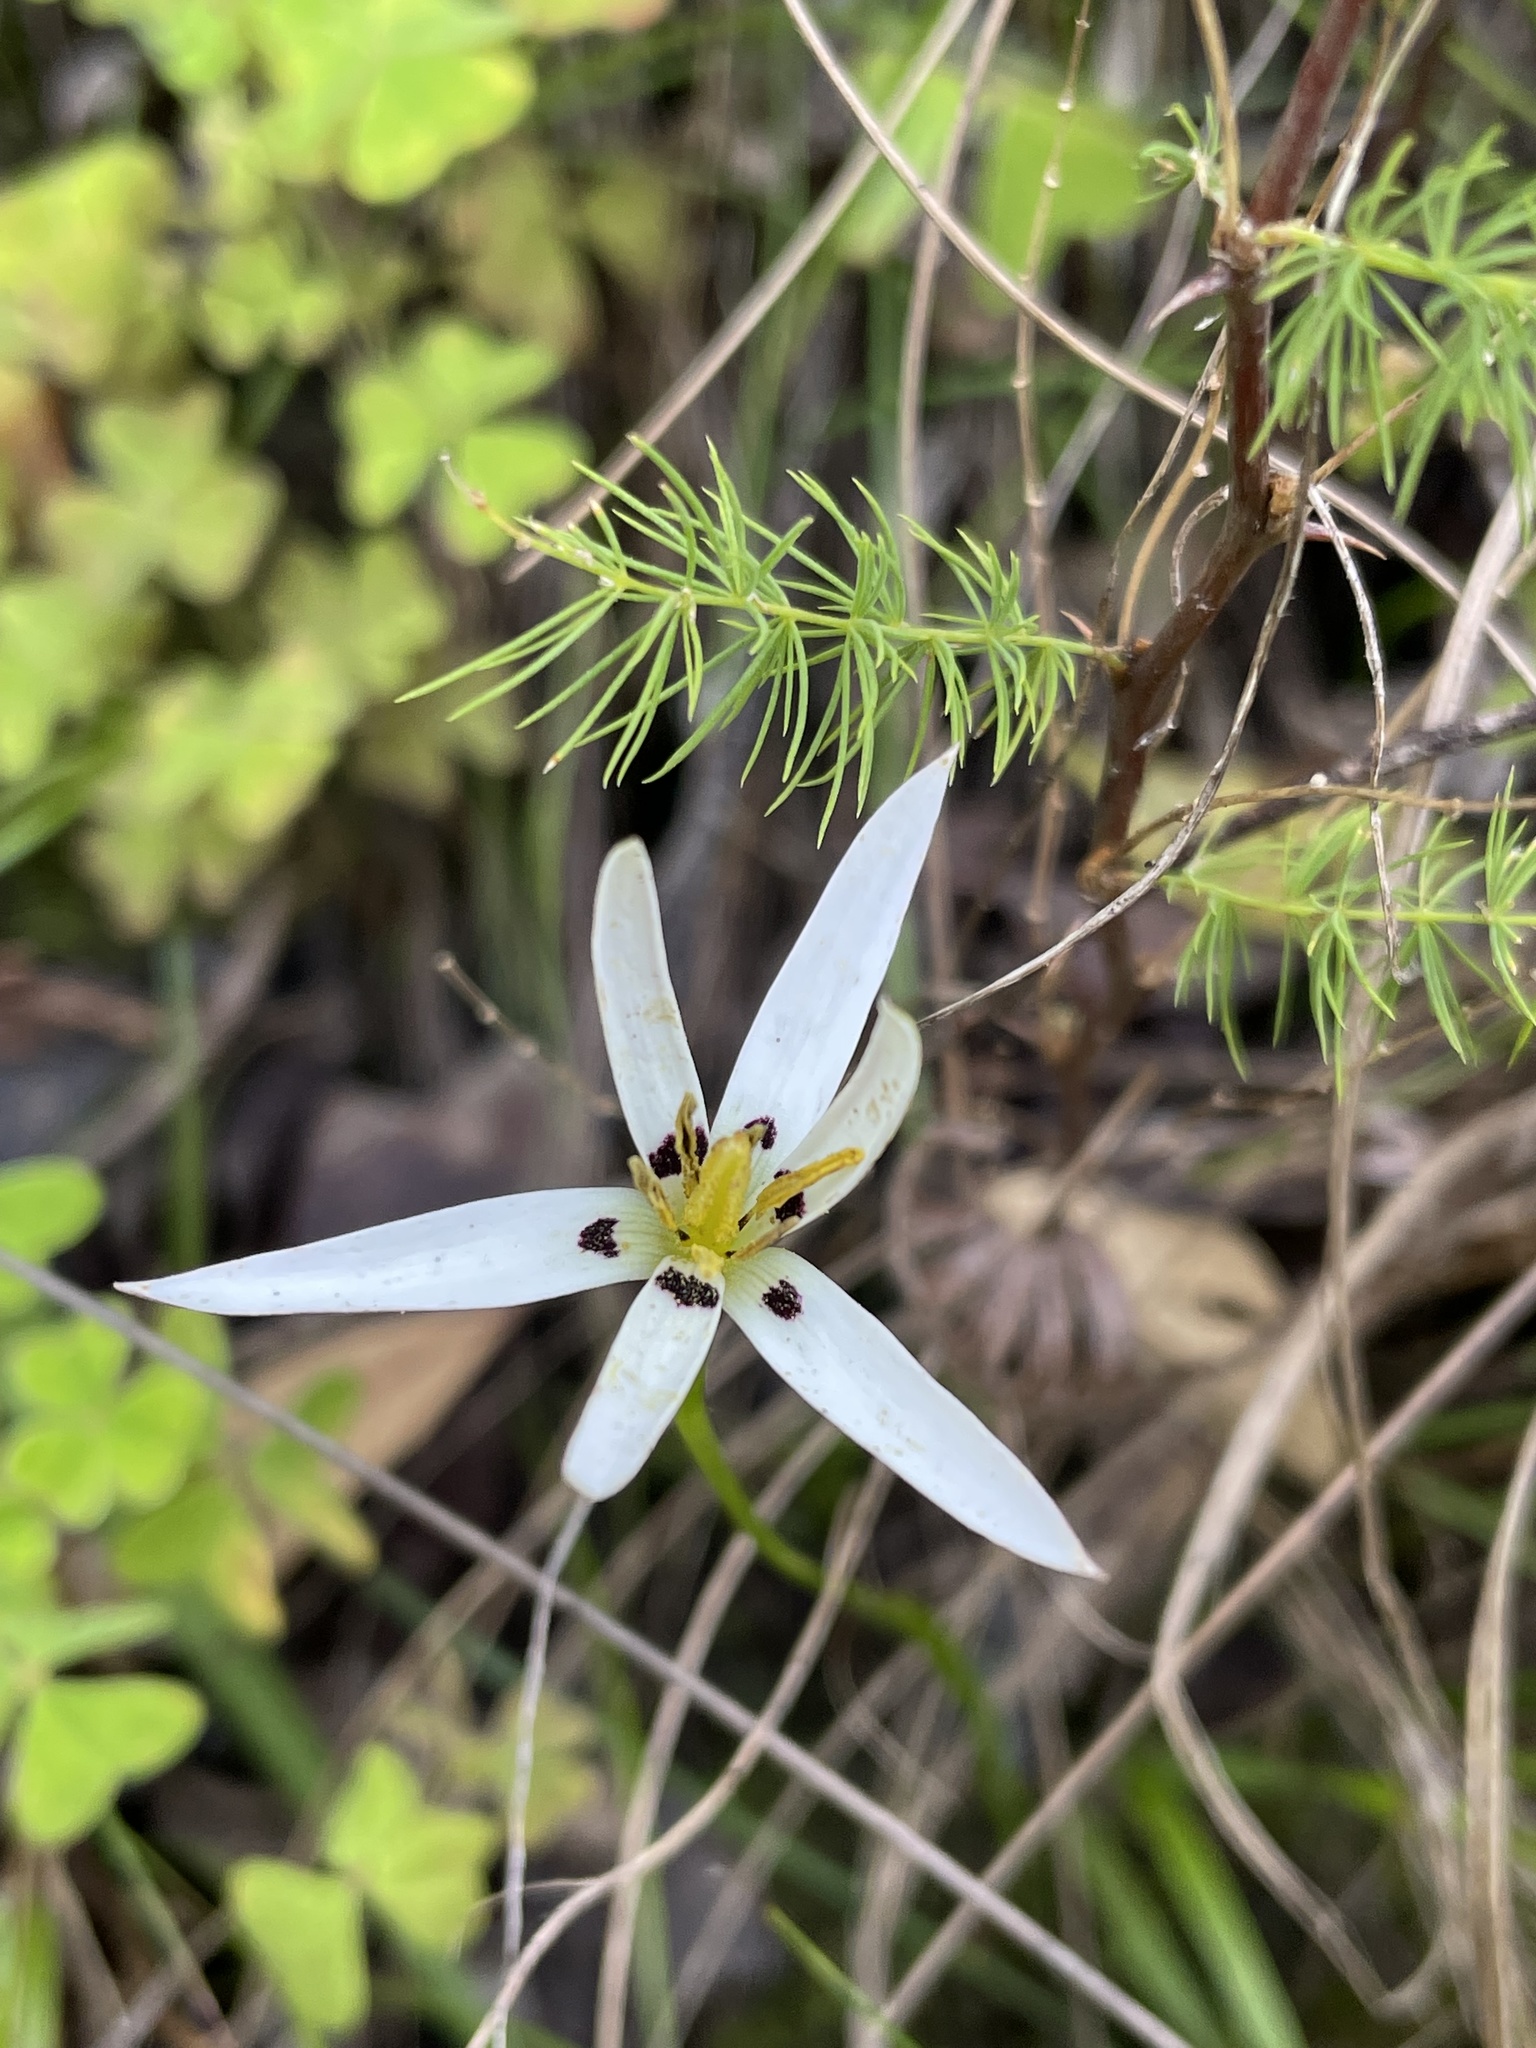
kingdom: Plantae
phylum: Tracheophyta
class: Liliopsida
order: Asparagales
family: Hypoxidaceae
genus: Pauridia
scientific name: Pauridia capensis
